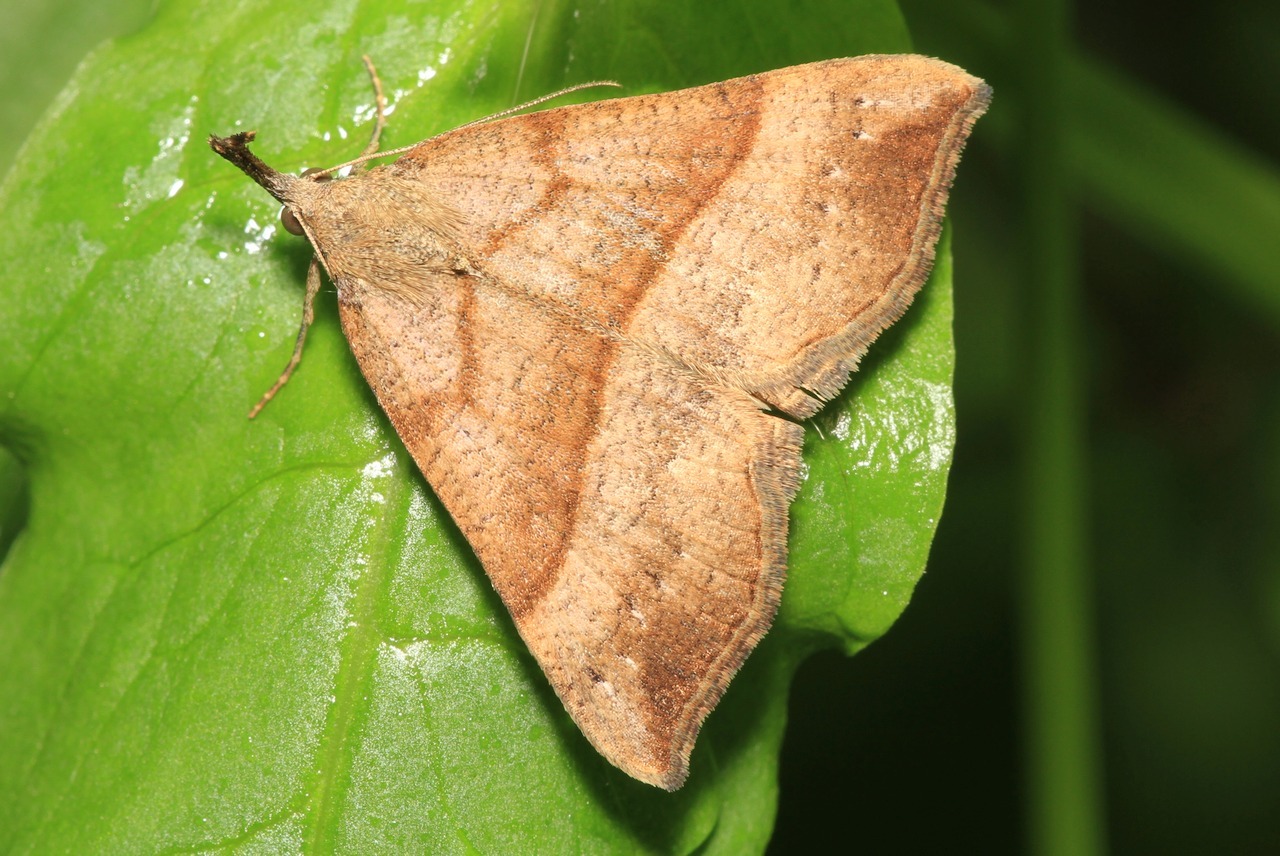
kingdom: Animalia
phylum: Arthropoda
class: Insecta
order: Lepidoptera
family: Erebidae
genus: Hypena
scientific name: Hypena proboscidalis
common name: Snout
